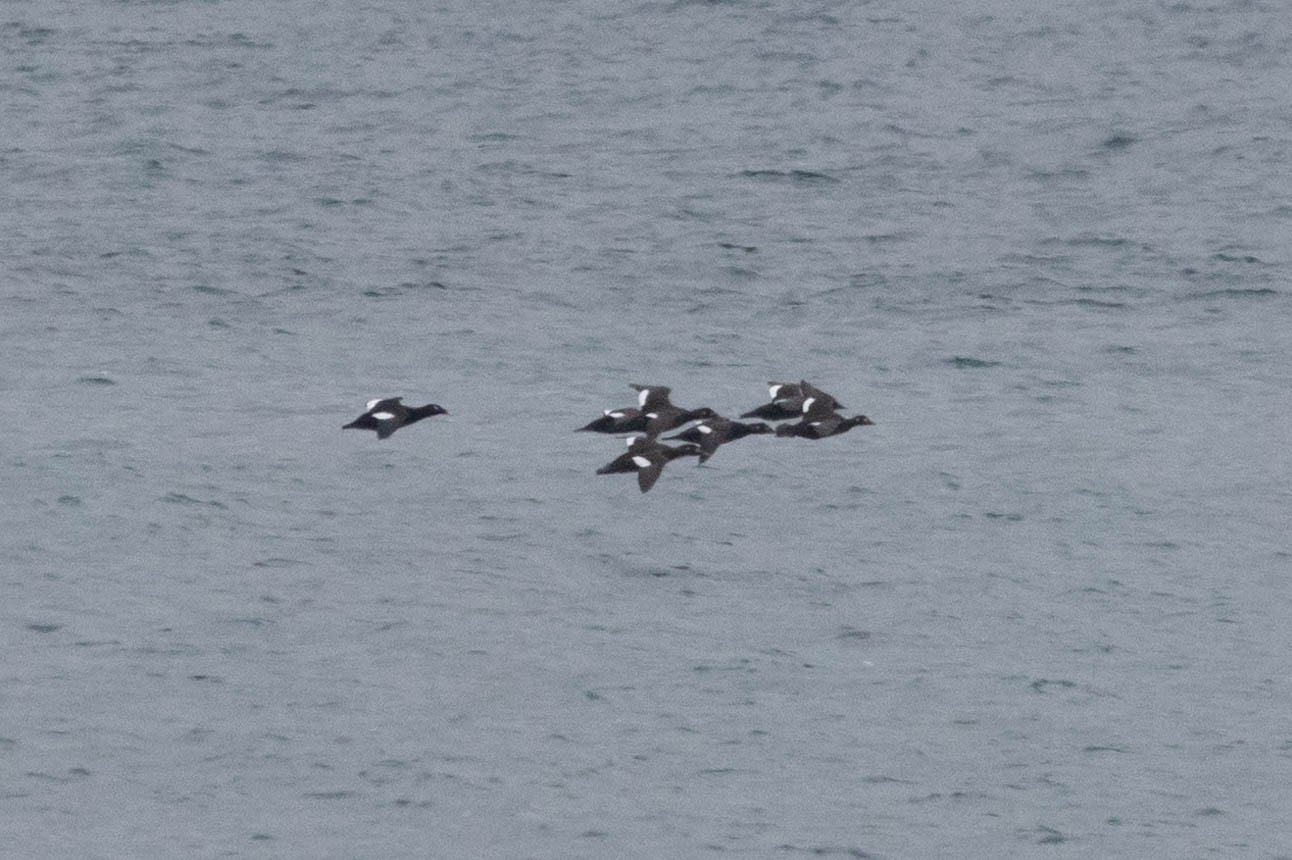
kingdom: Animalia
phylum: Chordata
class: Aves
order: Anseriformes
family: Anatidae
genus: Melanitta
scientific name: Melanitta deglandi
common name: White-winged scoter
